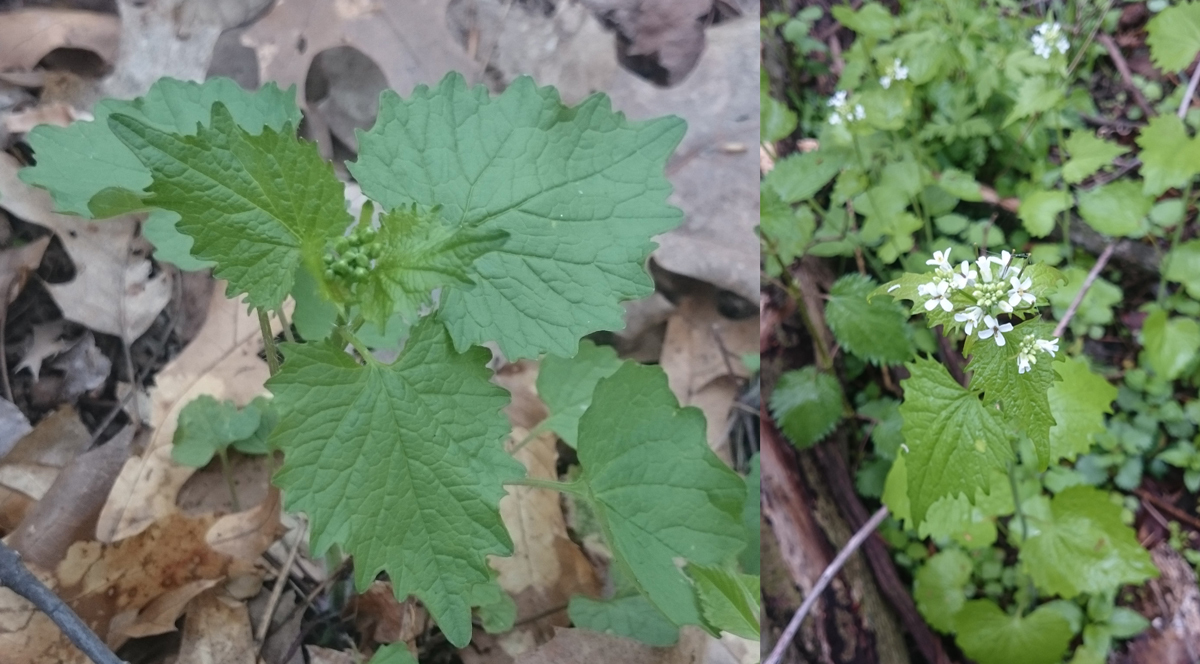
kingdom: Plantae
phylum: Tracheophyta
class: Magnoliopsida
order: Brassicales
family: Brassicaceae
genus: Alliaria
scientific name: Alliaria petiolata
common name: Garlic mustard
